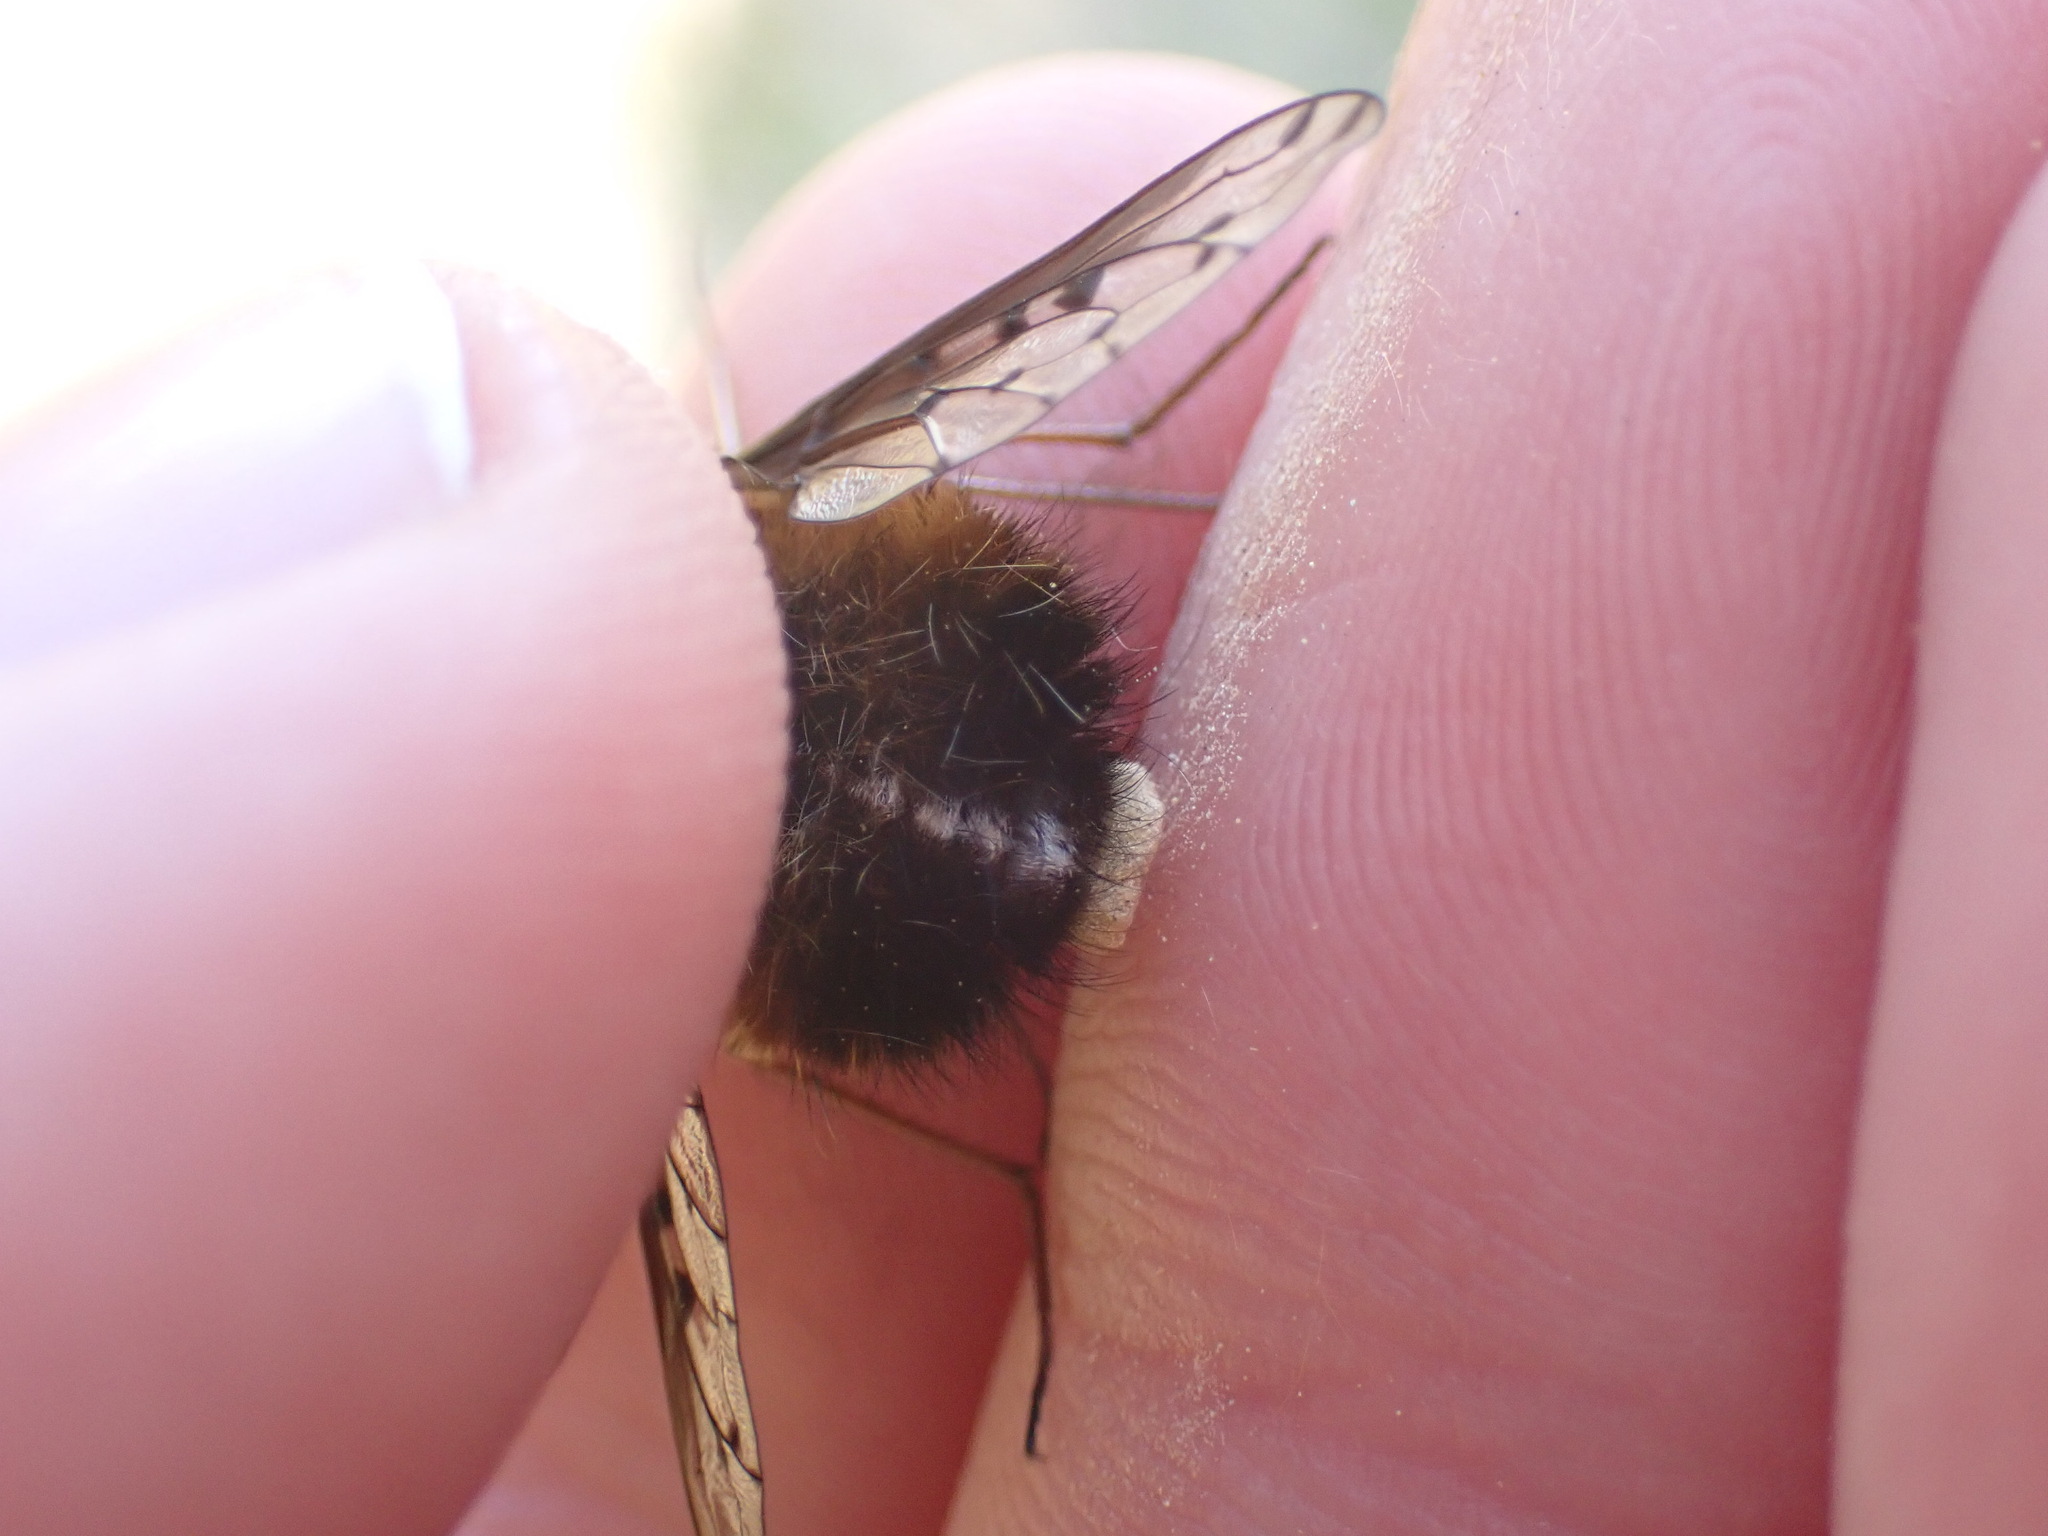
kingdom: Animalia
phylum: Arthropoda
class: Insecta
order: Diptera
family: Bombyliidae
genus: Bombylius
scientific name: Bombylius discolor
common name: Dotted bee-fly
